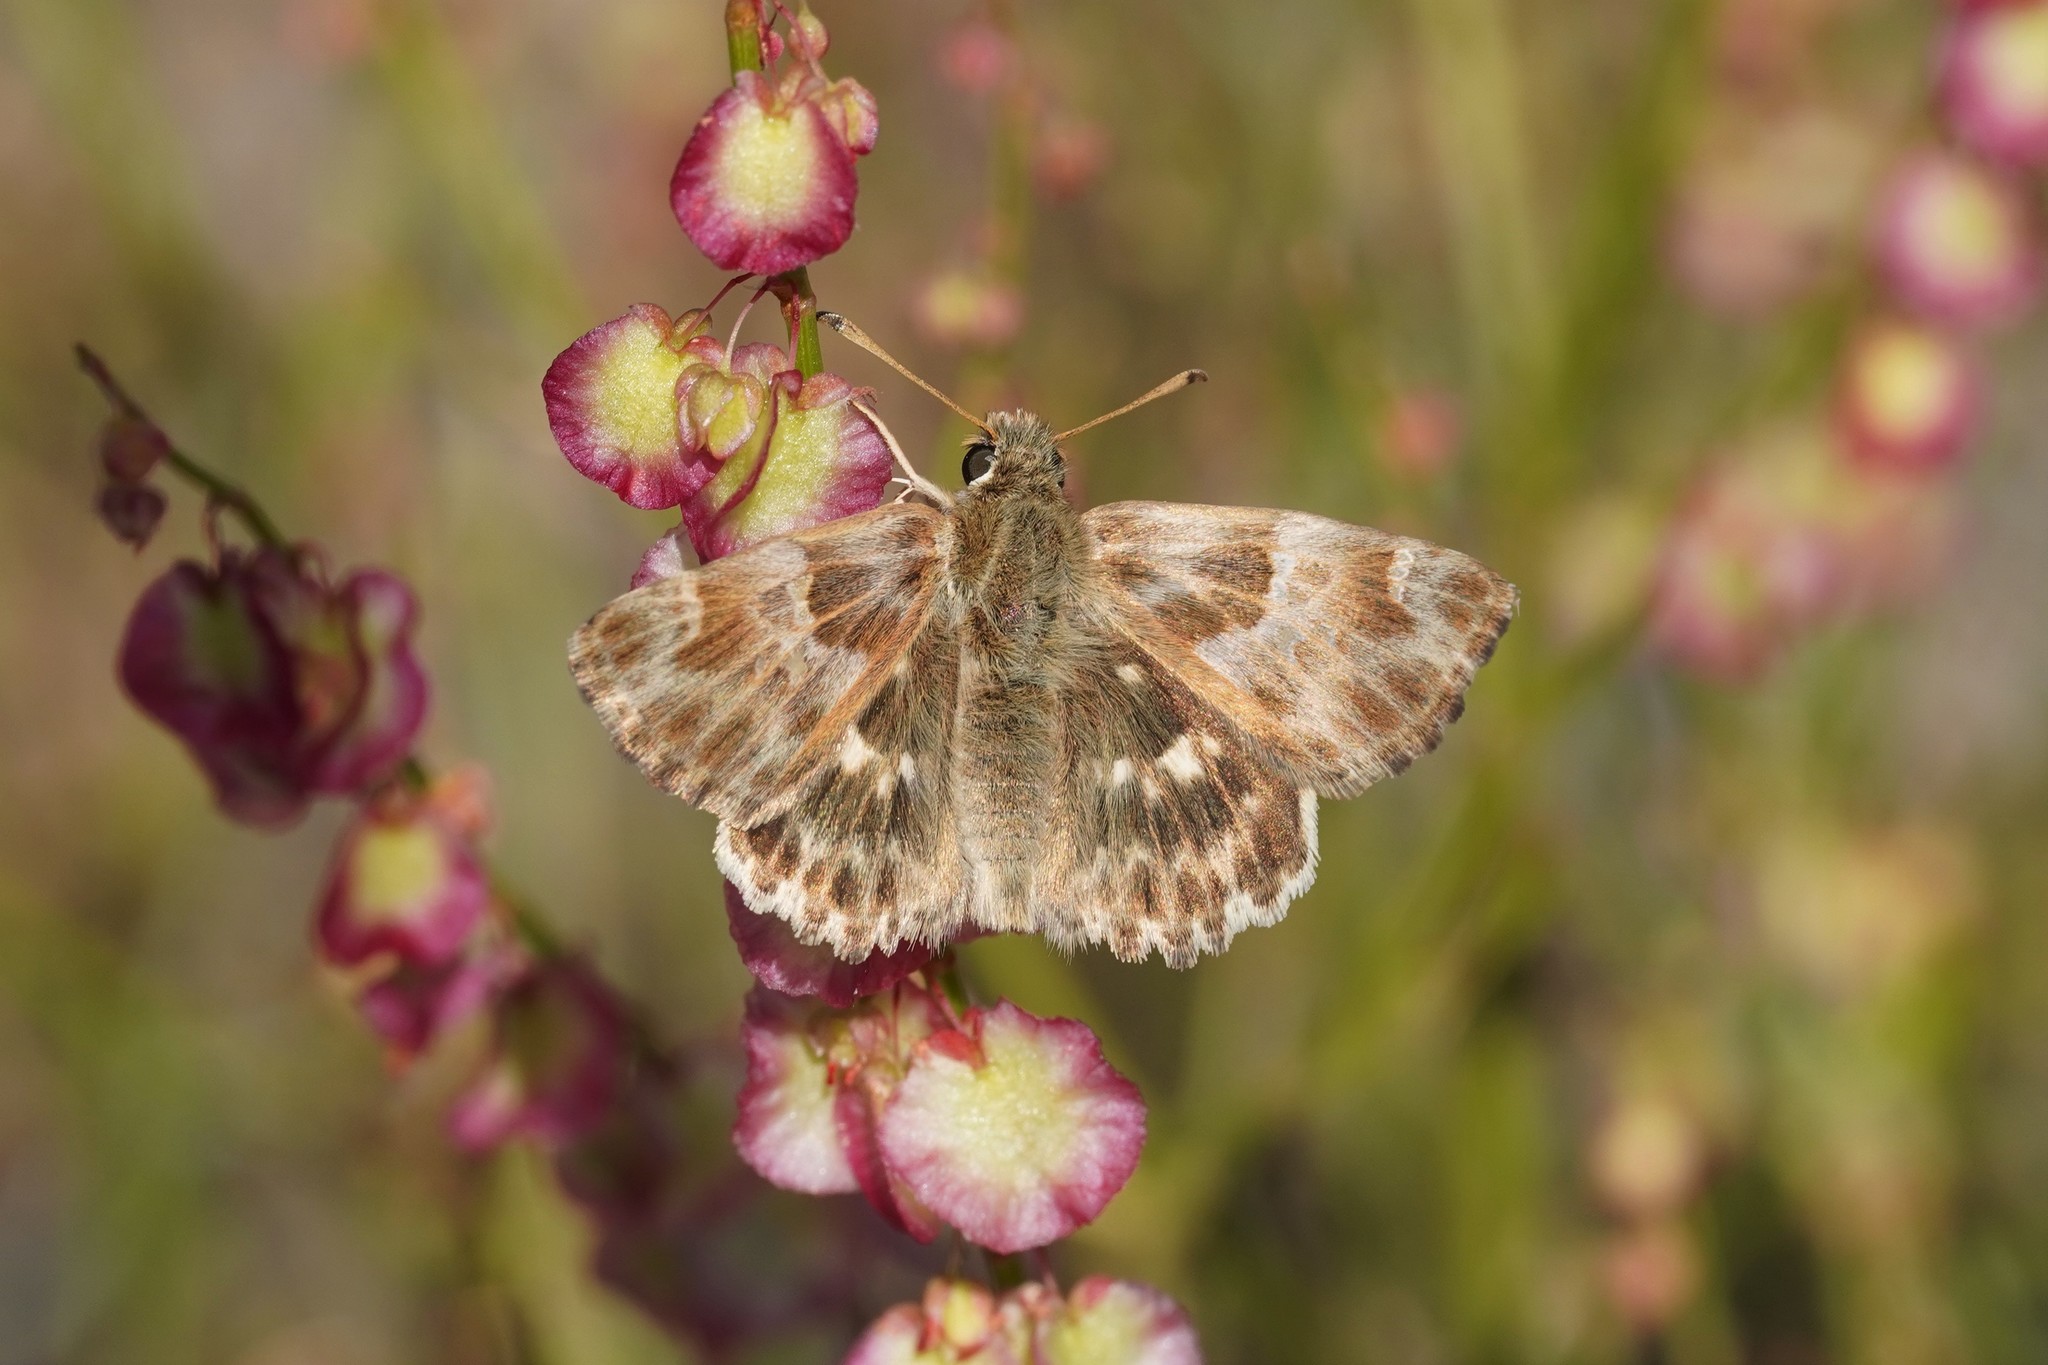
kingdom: Animalia
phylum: Arthropoda
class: Insecta
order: Lepidoptera
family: Hesperiidae
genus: Syrichtus
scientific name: Syrichtus Muschampia baeticus
